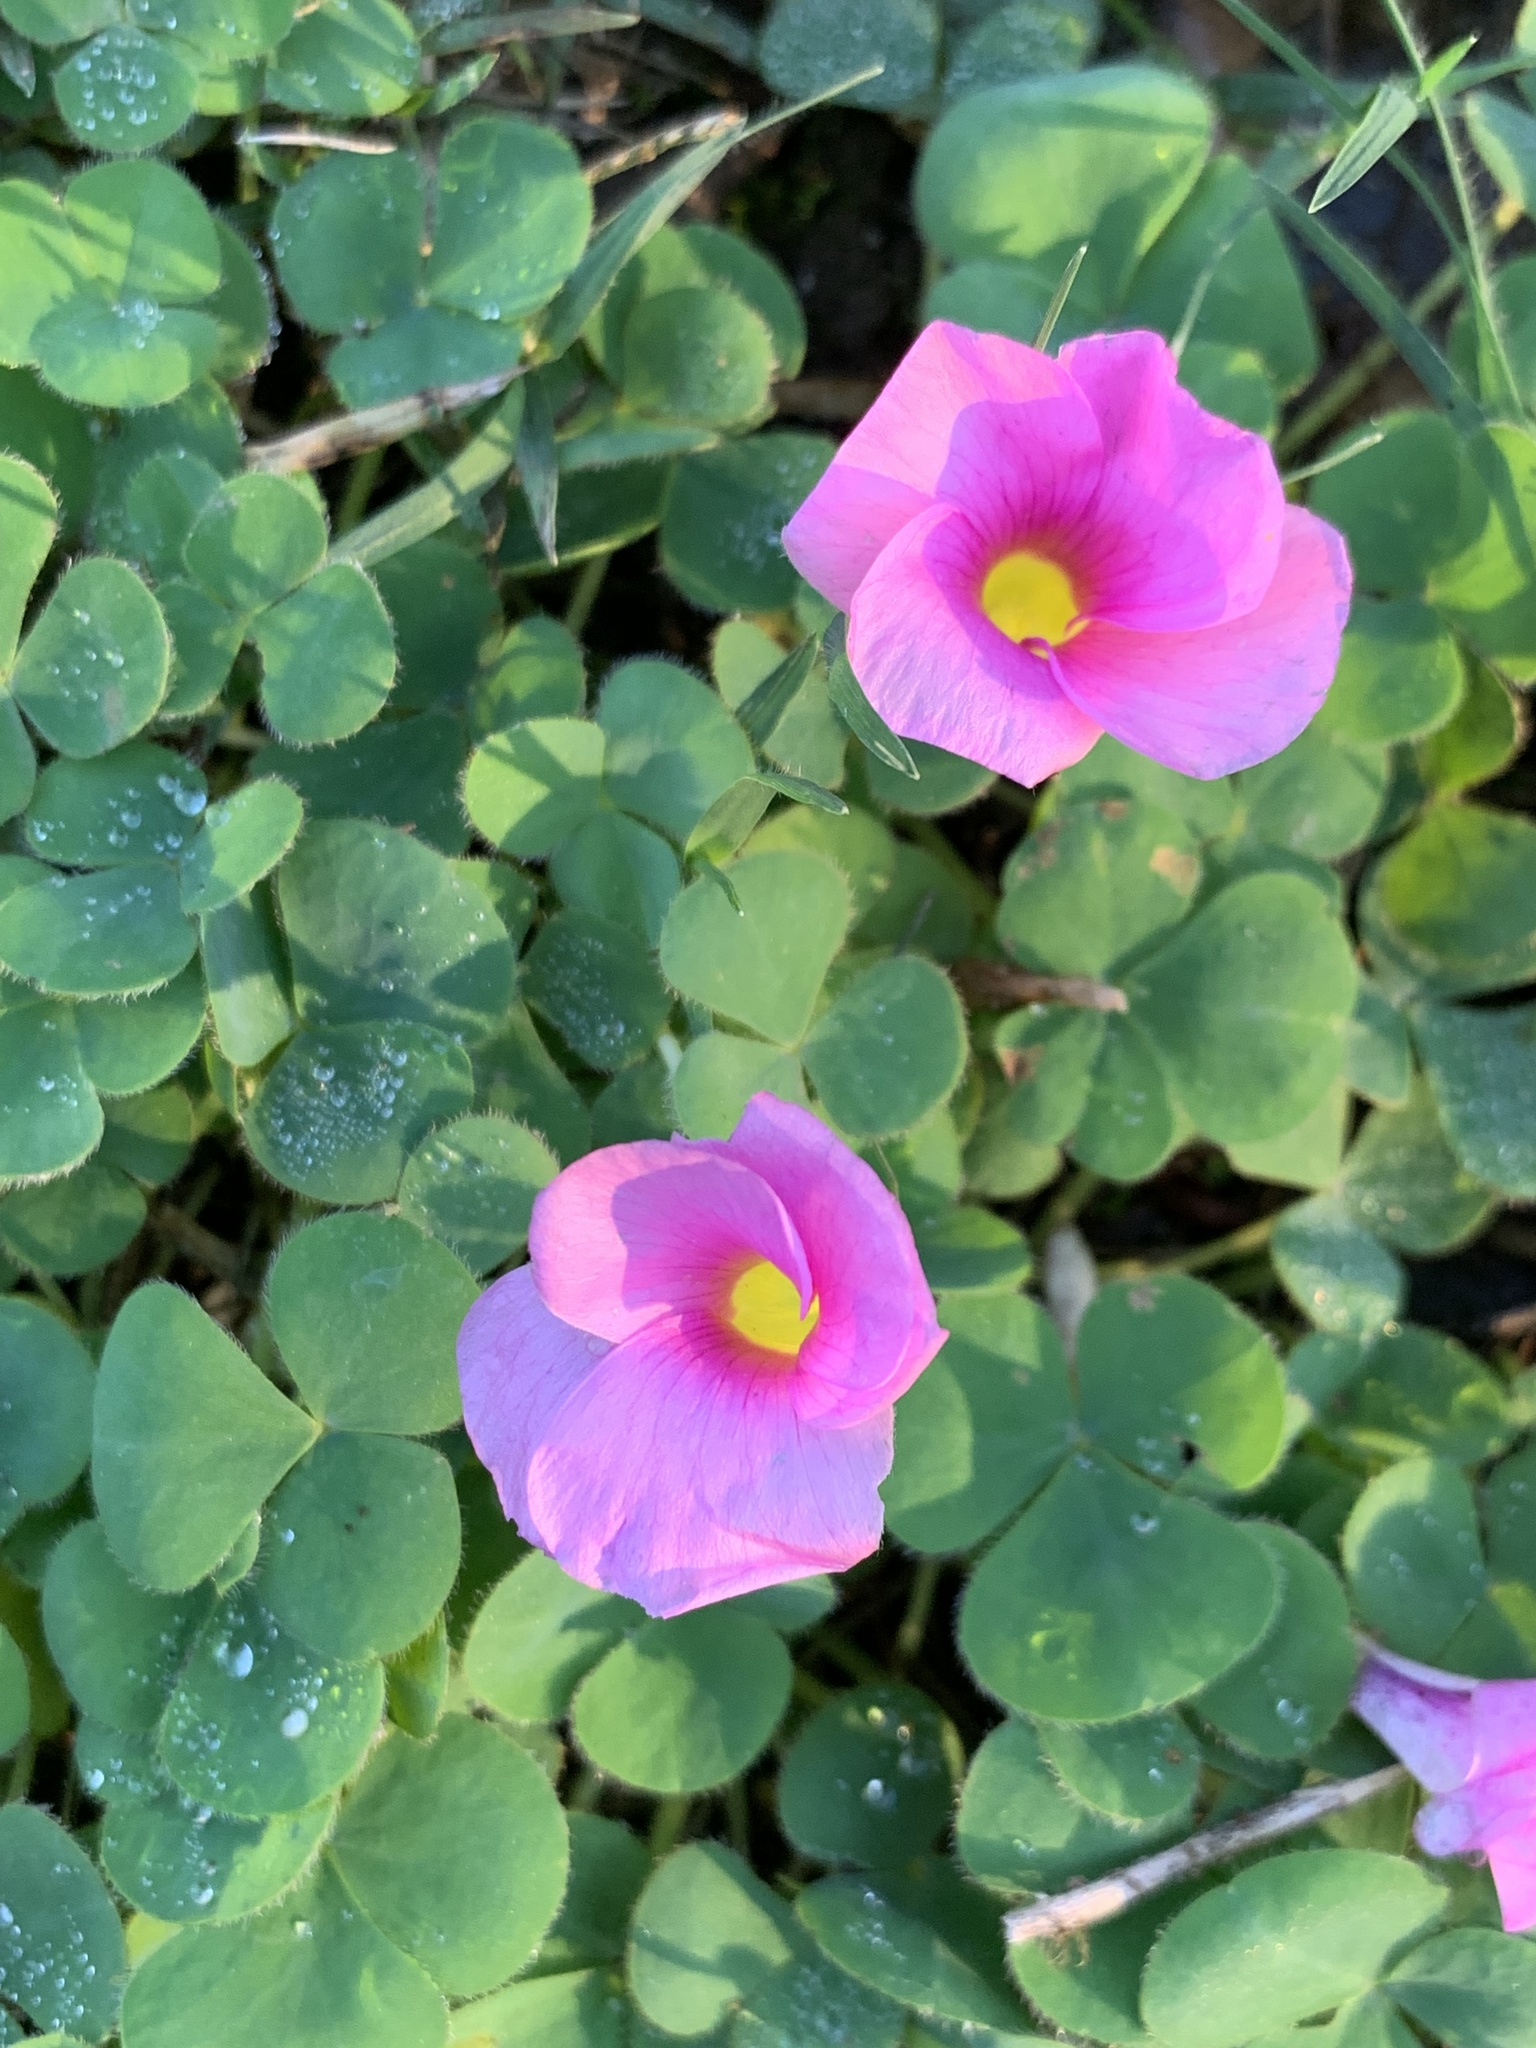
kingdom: Plantae
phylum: Tracheophyta
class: Magnoliopsida
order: Oxalidales
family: Oxalidaceae
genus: Oxalis
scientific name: Oxalis purpurea
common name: Purple woodsorrel
